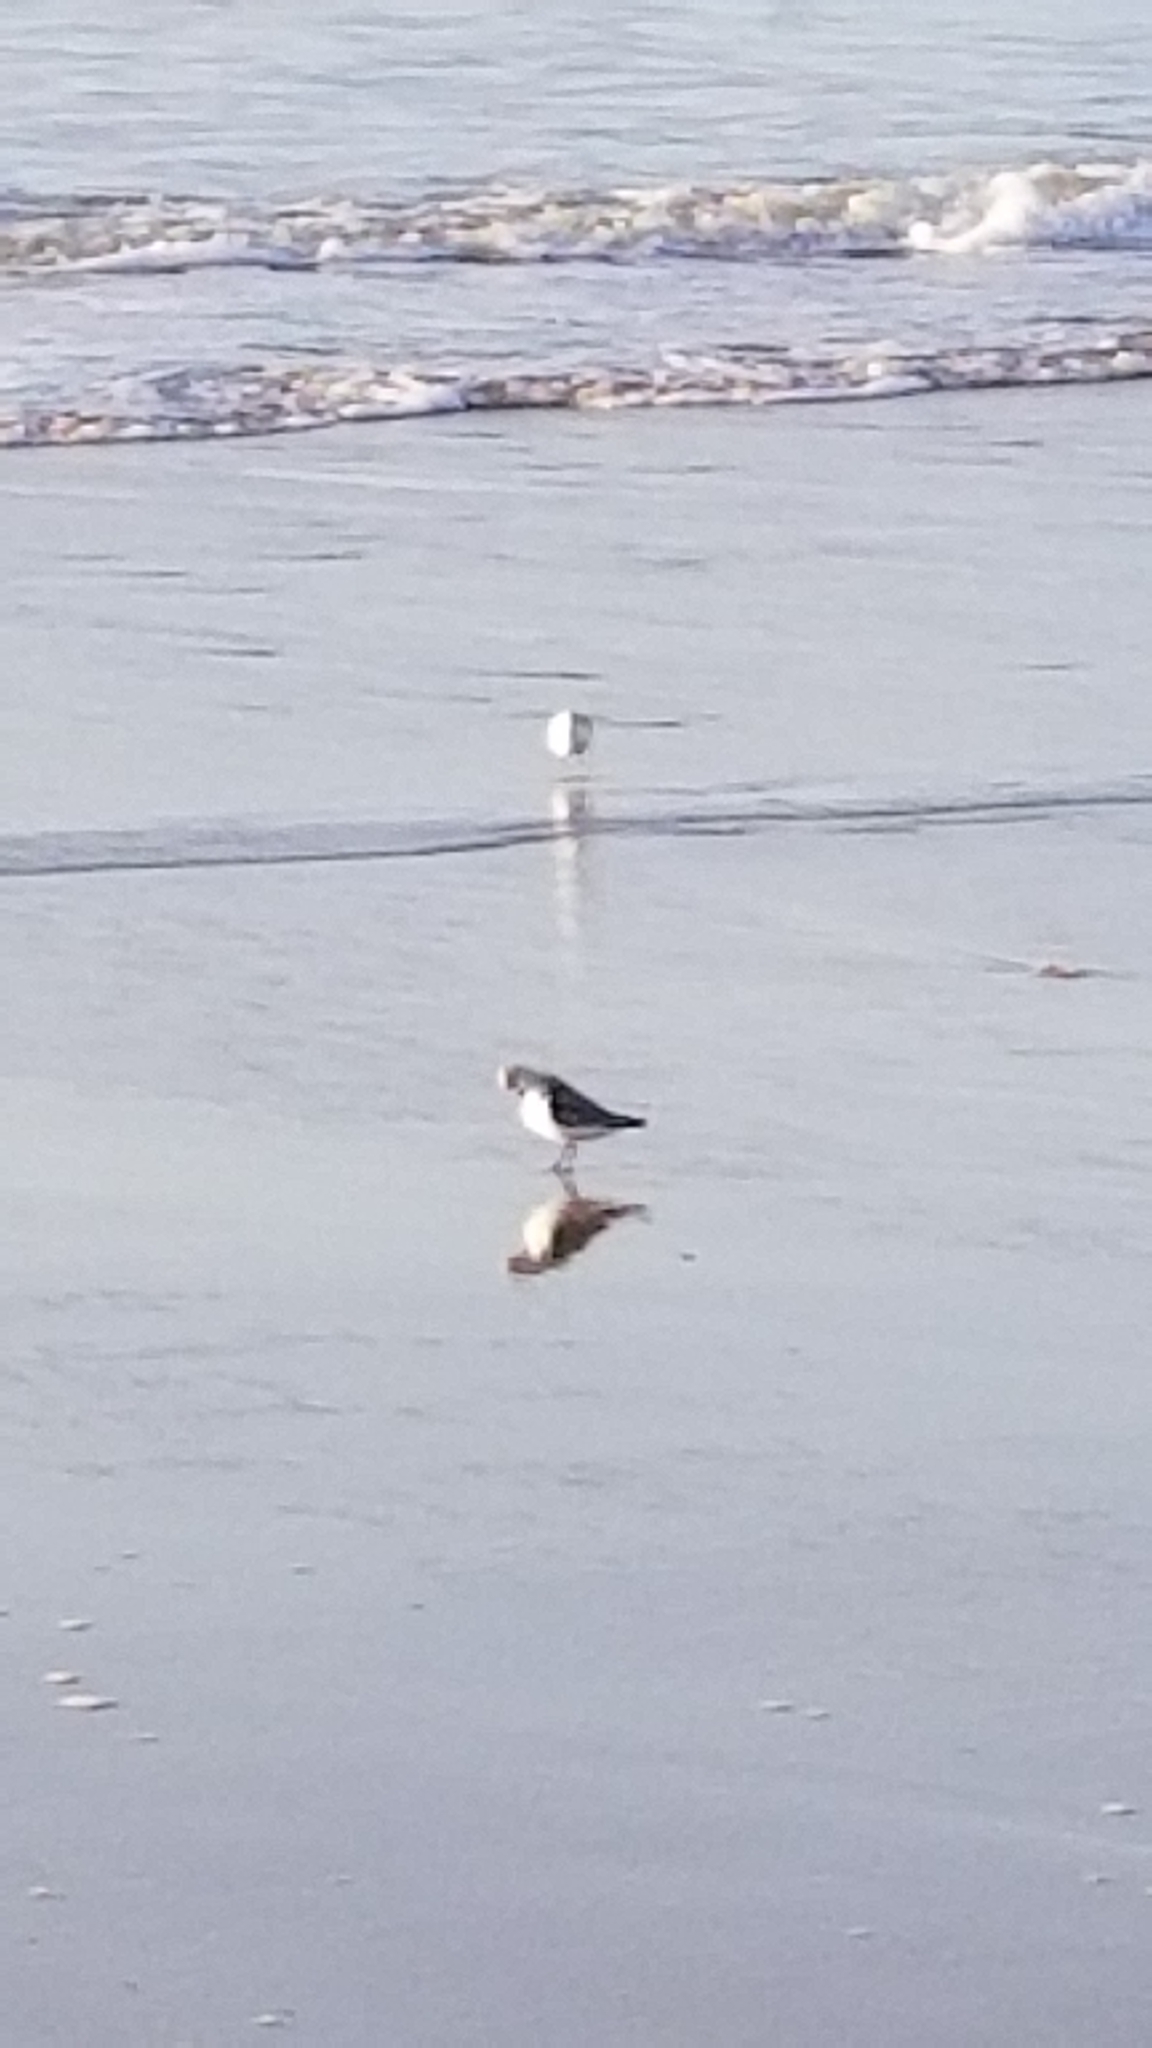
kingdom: Animalia
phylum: Chordata
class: Aves
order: Charadriiformes
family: Scolopacidae
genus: Calidris
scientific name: Calidris alba
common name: Sanderling
